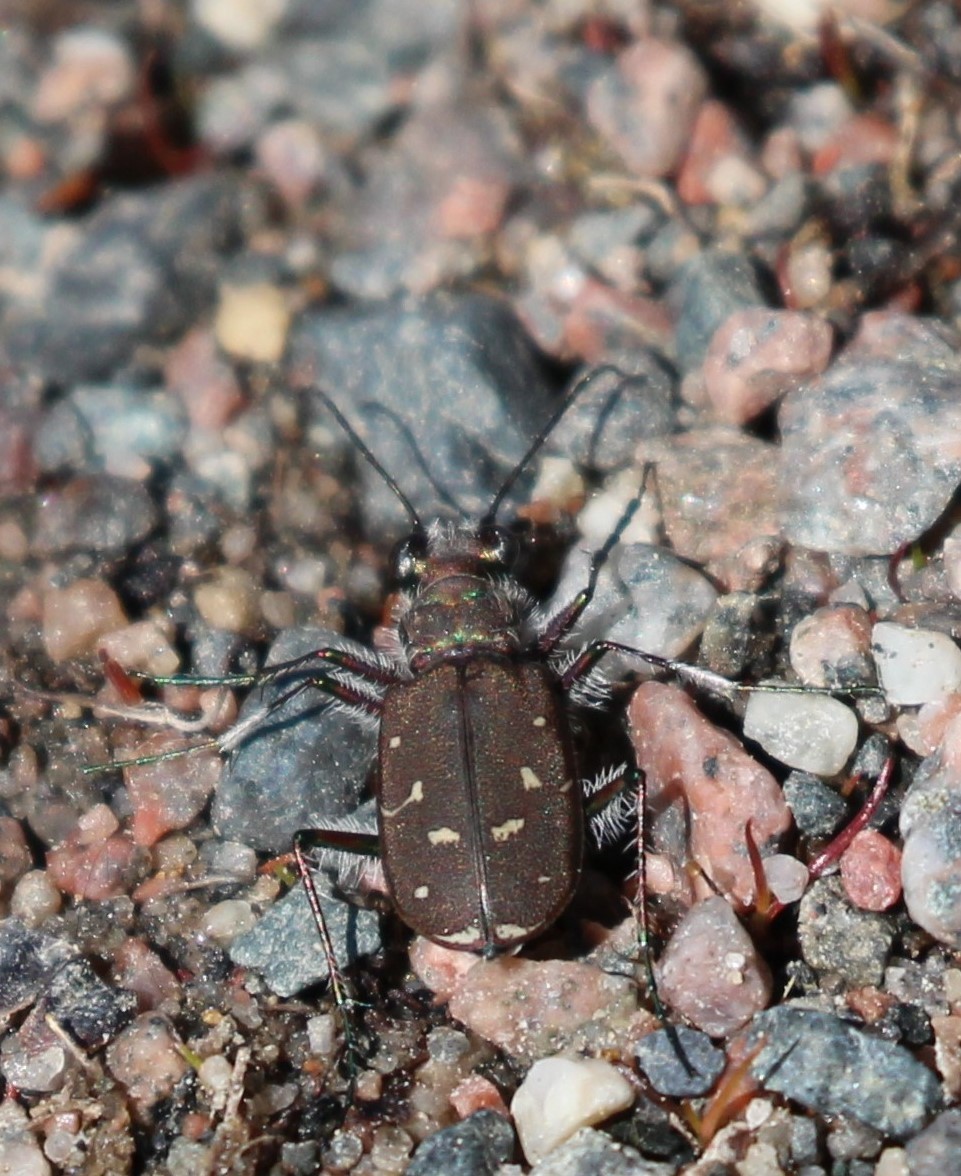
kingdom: Animalia
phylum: Arthropoda
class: Insecta
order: Coleoptera
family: Carabidae
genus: Cicindela
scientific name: Cicindela duodecimguttata
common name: Twelve-spotted tiger beetle
